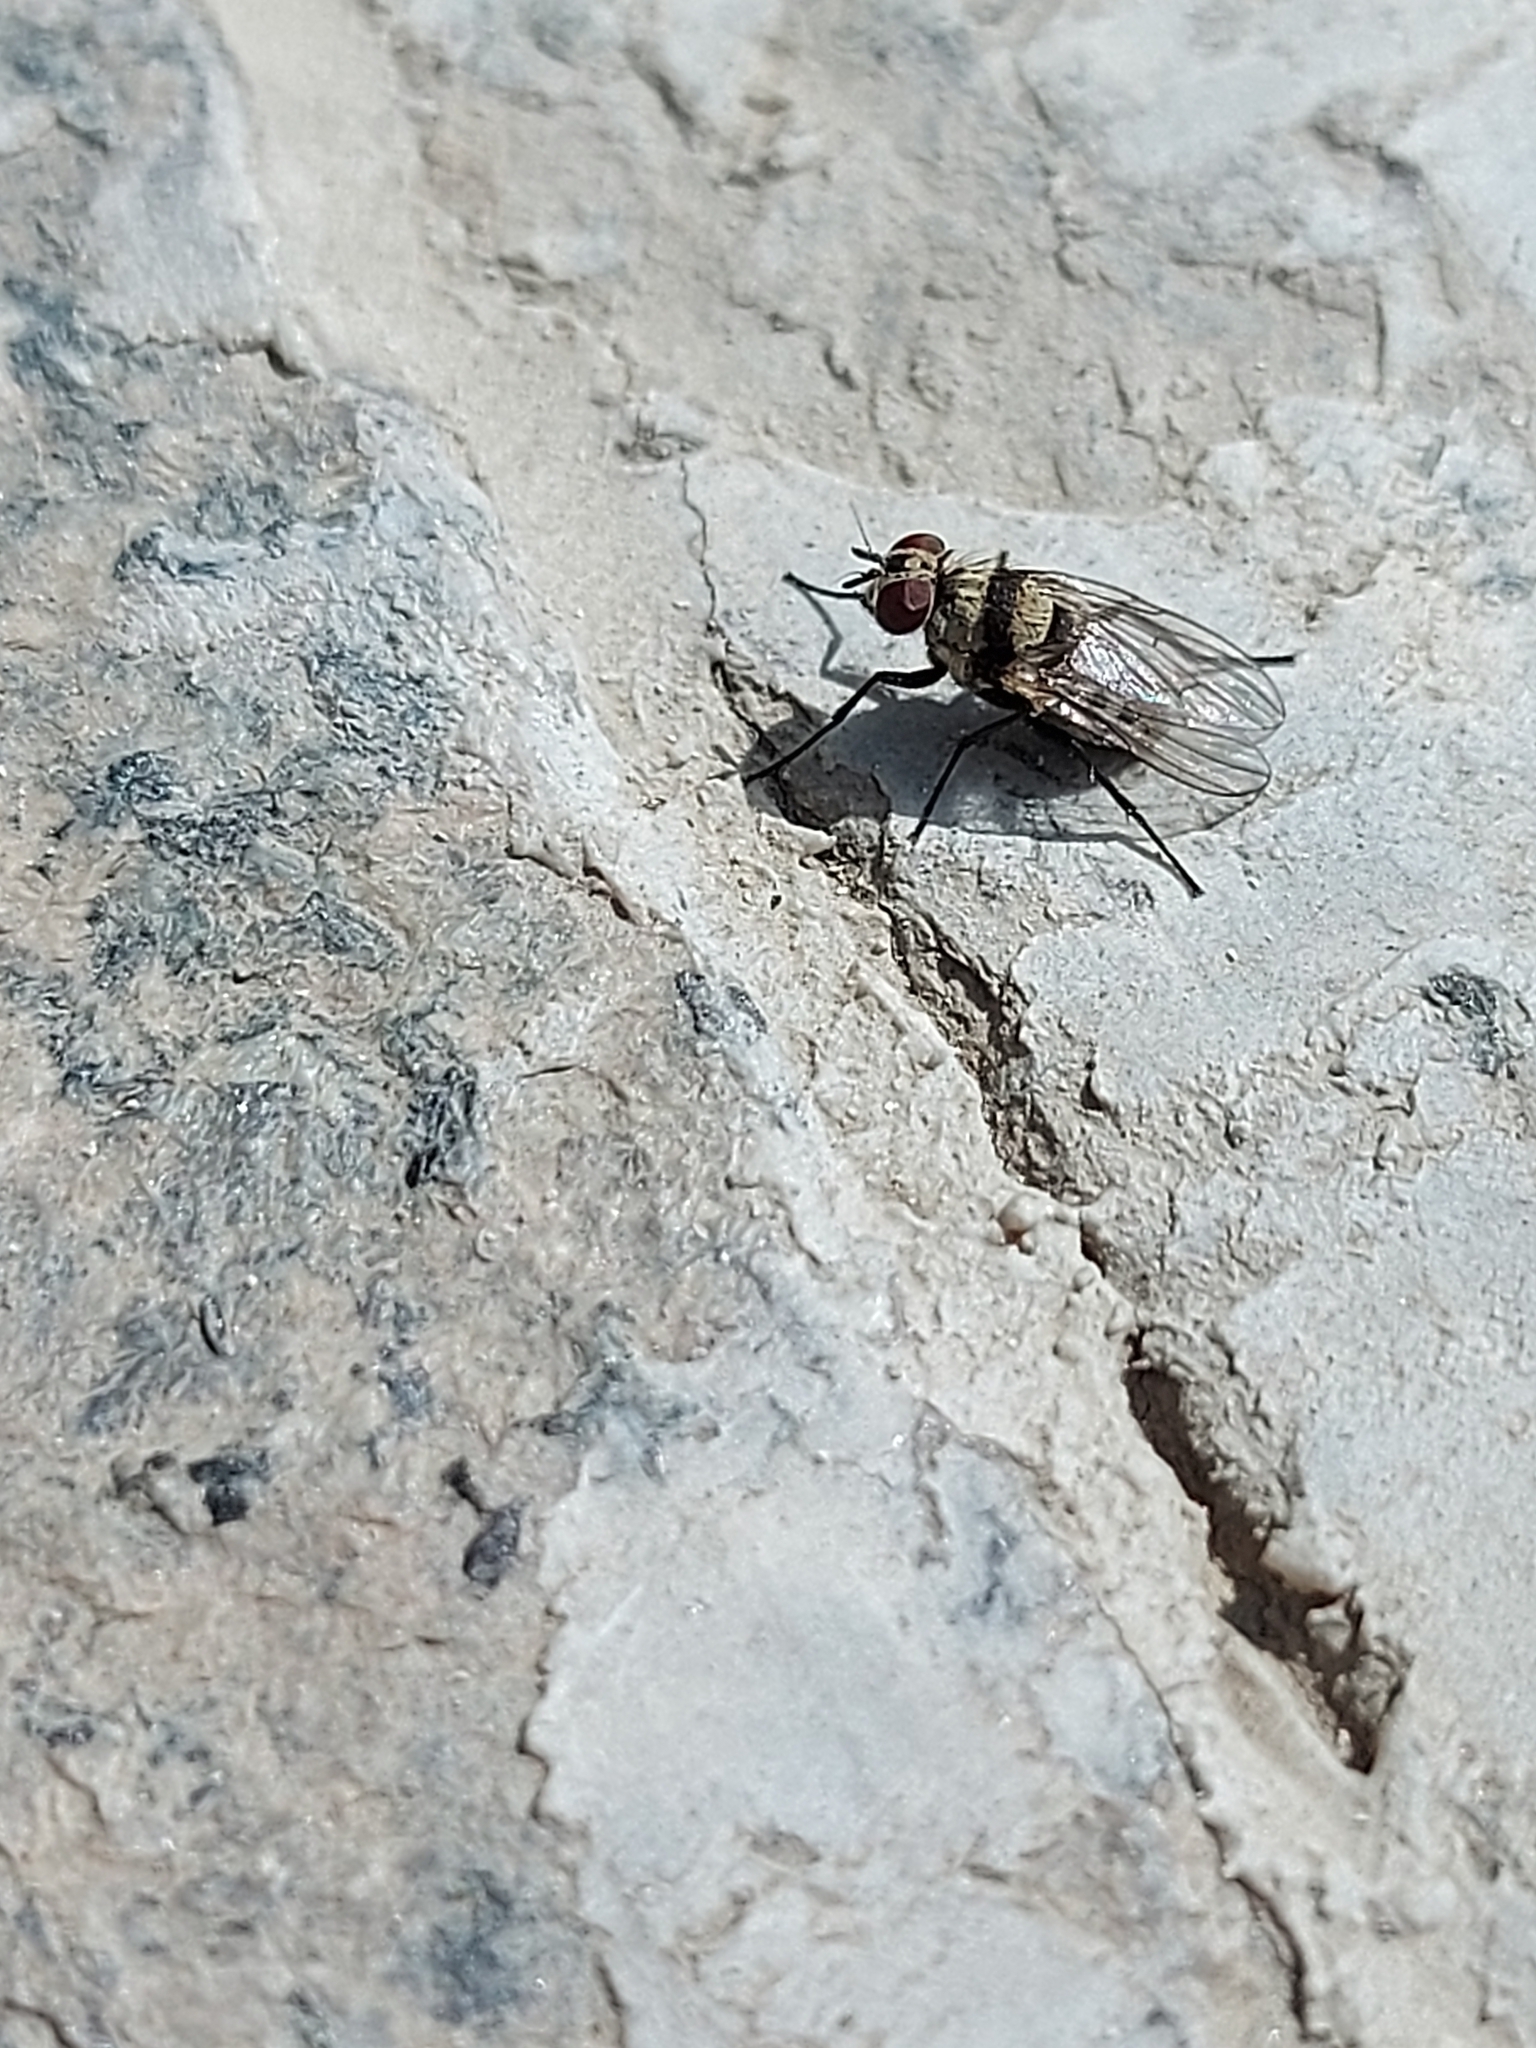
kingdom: Animalia
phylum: Arthropoda
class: Insecta
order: Diptera
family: Anthomyiidae
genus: Anthomyia
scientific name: Anthomyia illocata
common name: Fly
